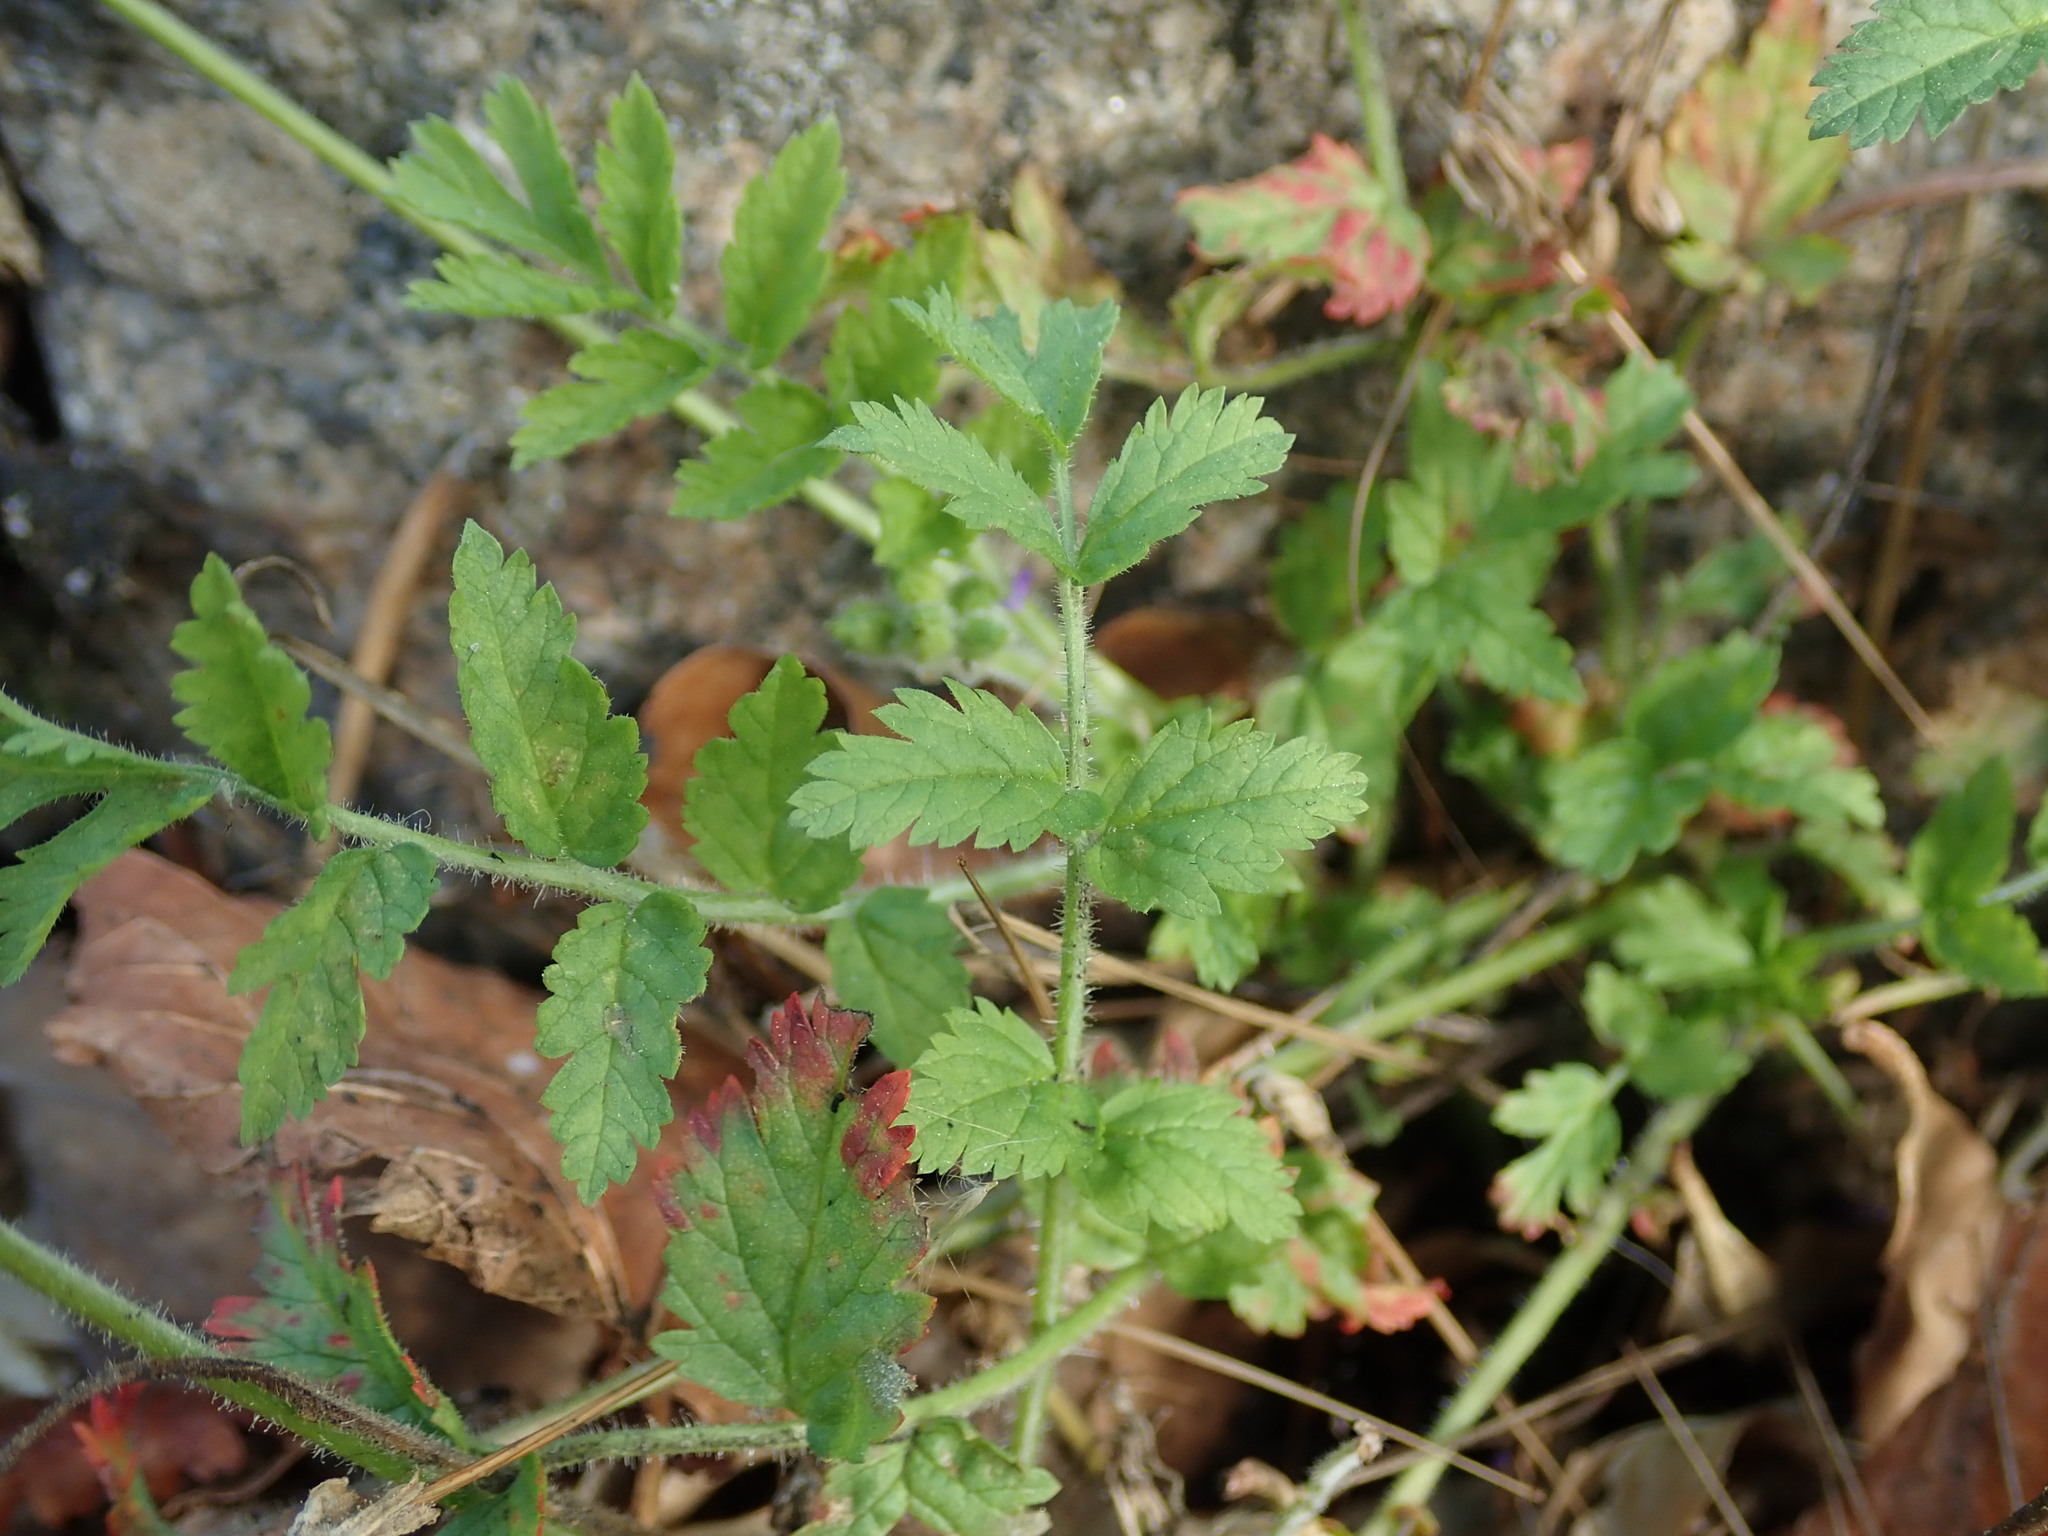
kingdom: Plantae
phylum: Tracheophyta
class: Magnoliopsida
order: Geraniales
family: Geraniaceae
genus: Erodium
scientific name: Erodium moschatum
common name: Musk stork's-bill
